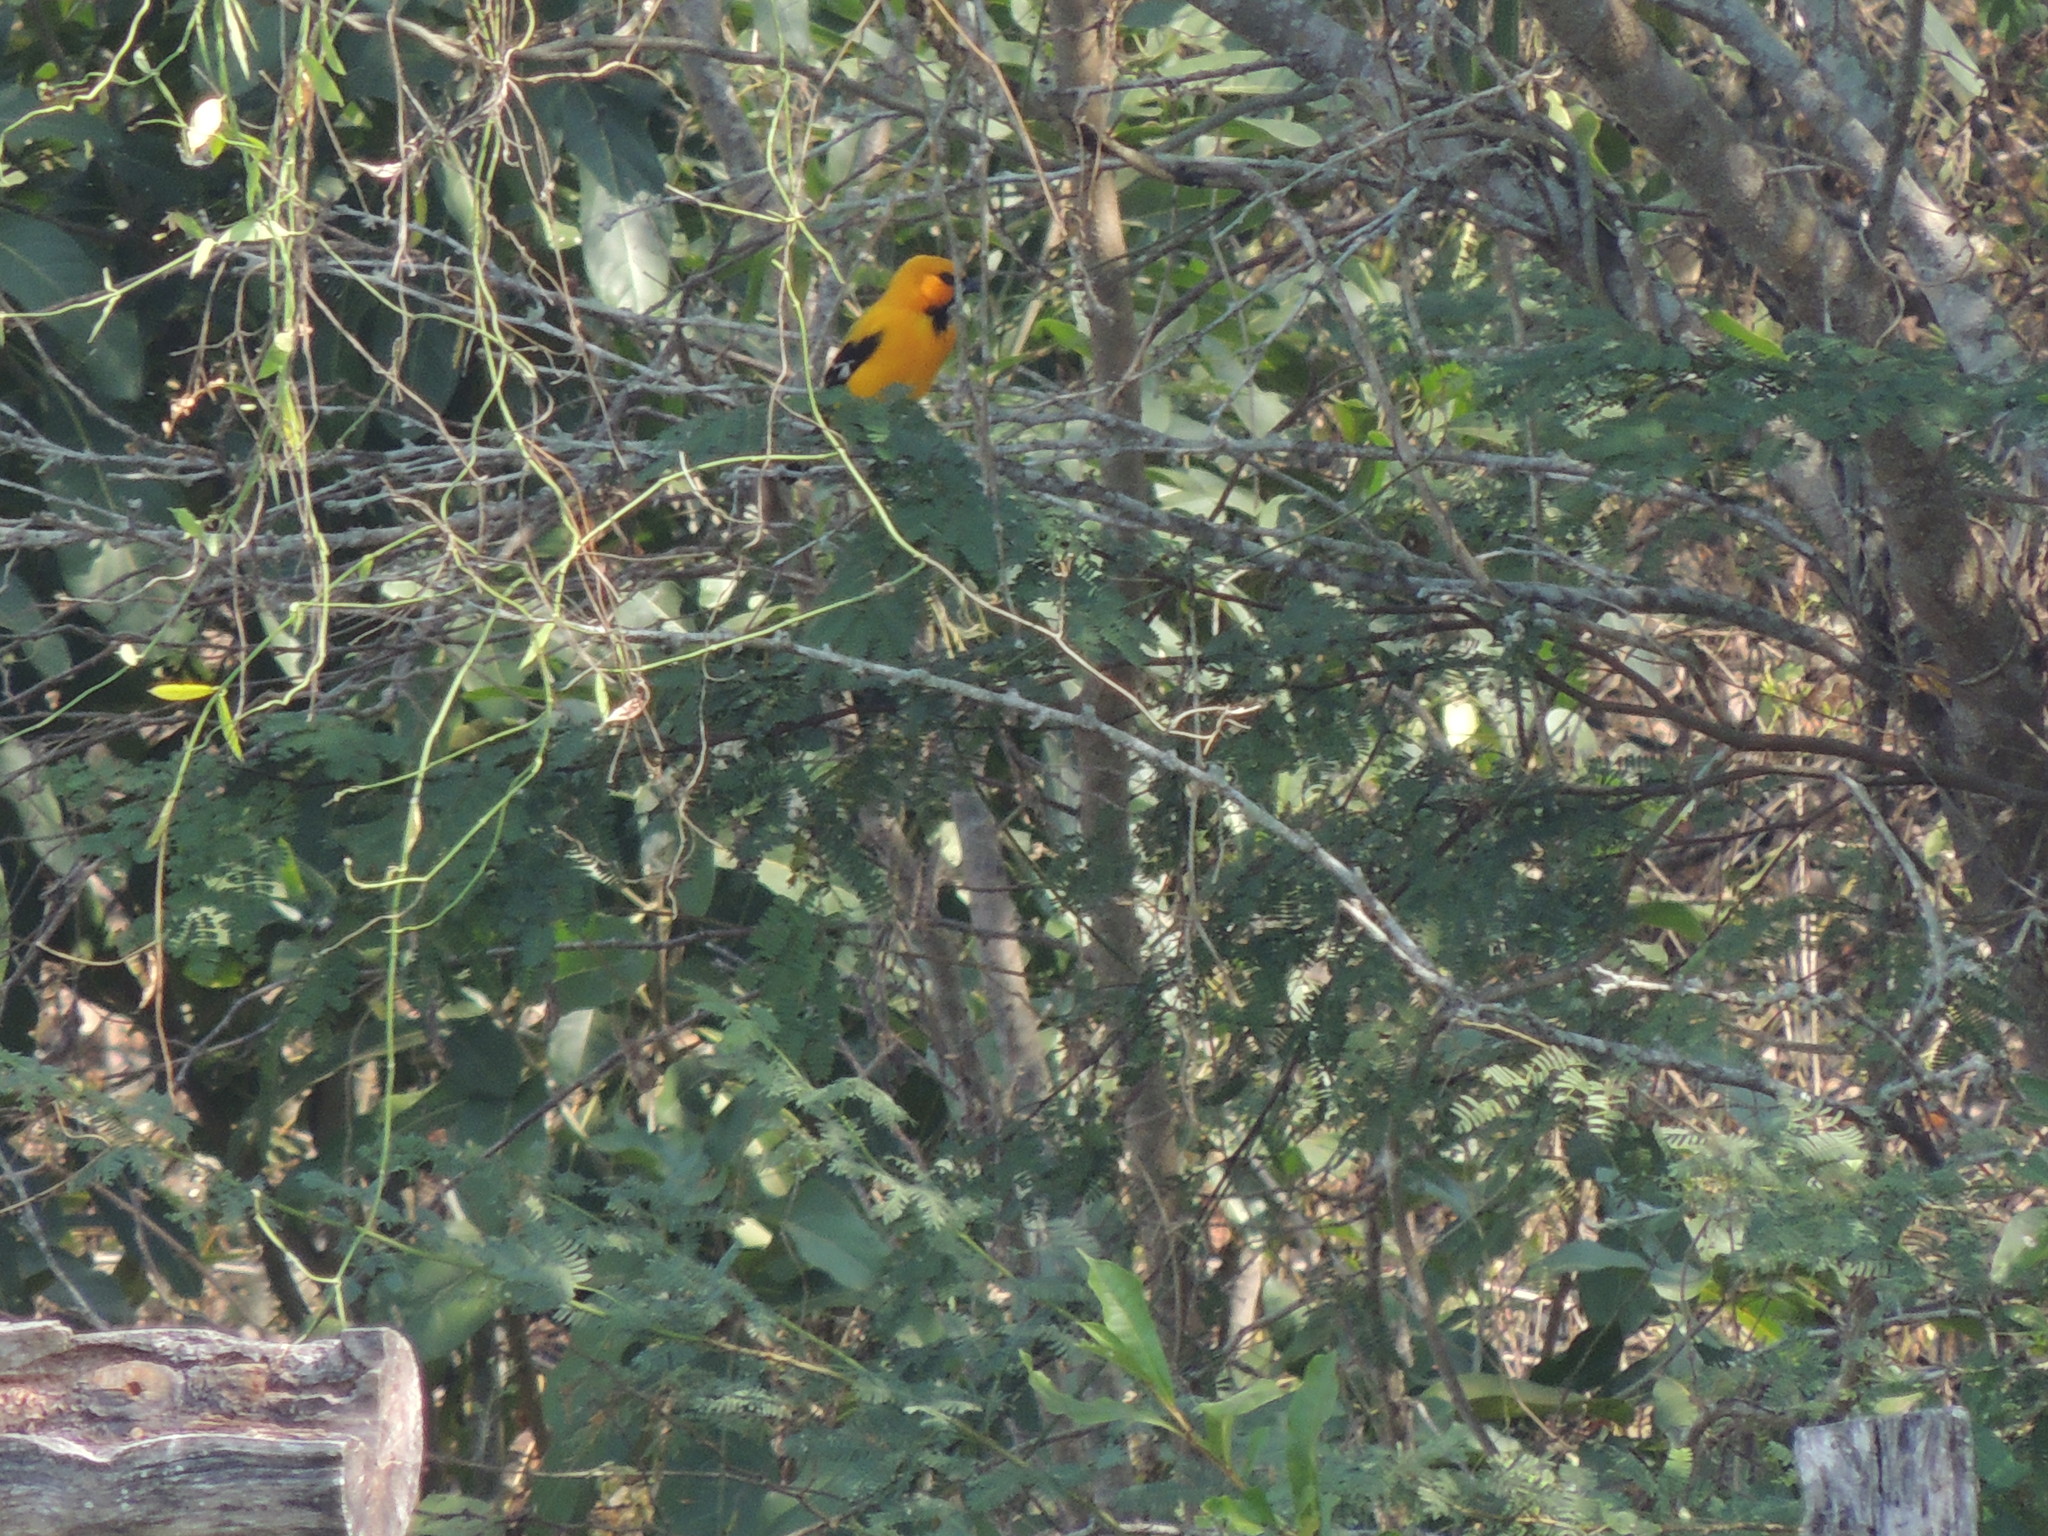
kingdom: Animalia
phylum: Chordata
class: Aves
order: Passeriformes
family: Icteridae
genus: Icterus
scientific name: Icterus nigrogularis
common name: Yellow oriole
